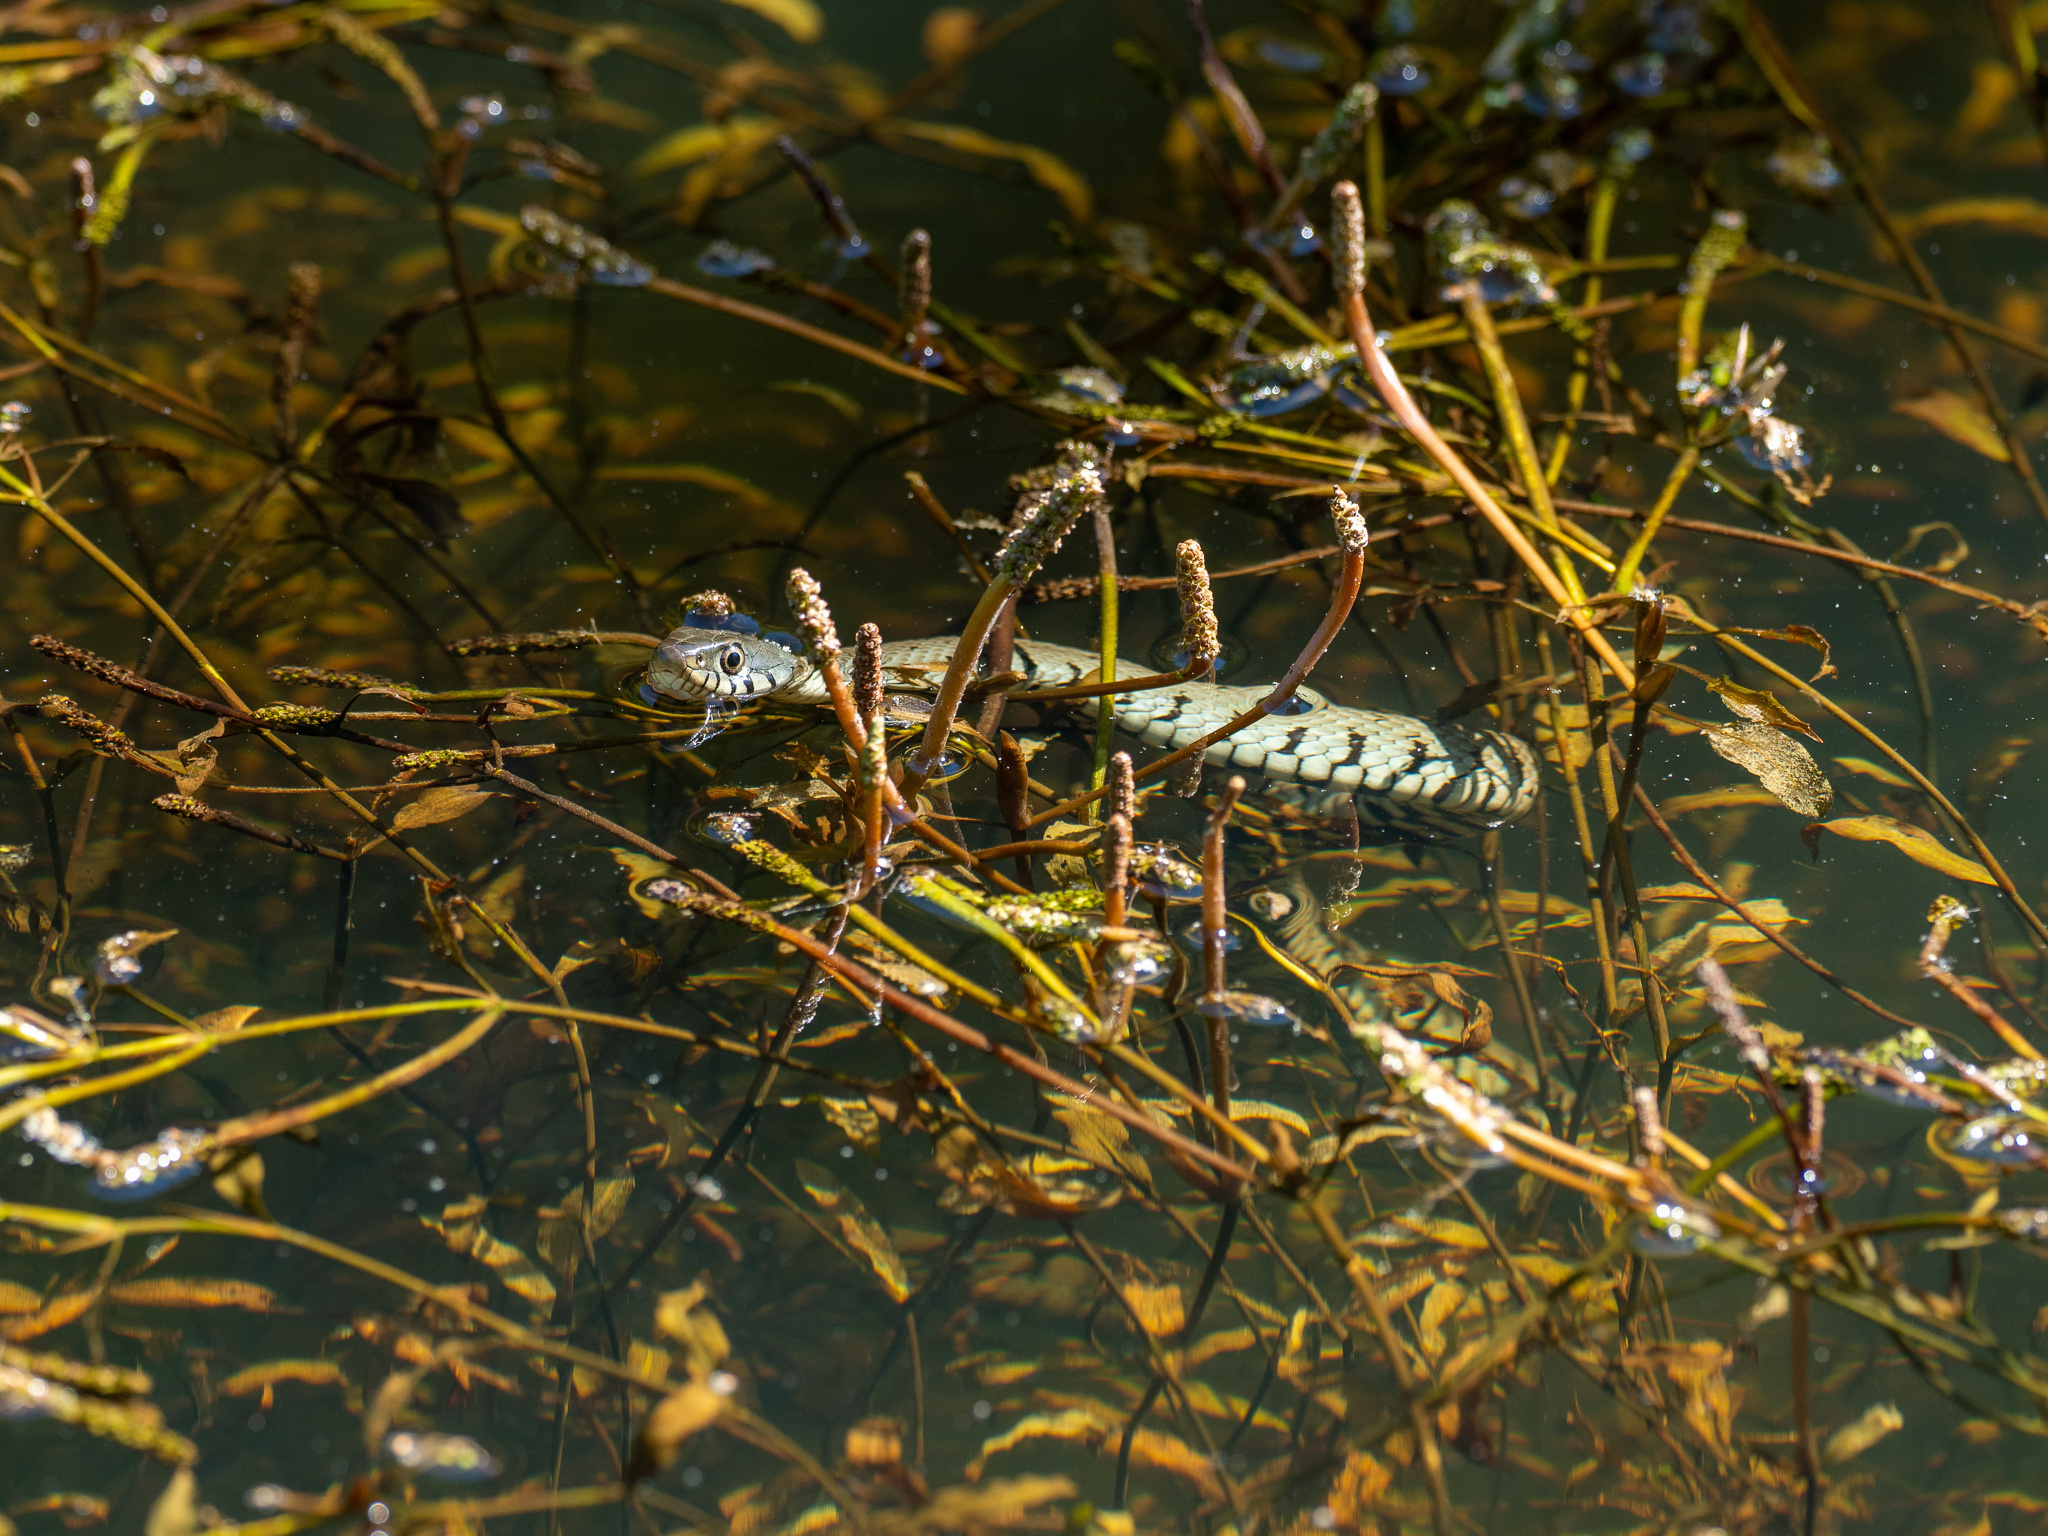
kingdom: Animalia
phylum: Chordata
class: Squamata
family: Colubridae
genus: Natrix
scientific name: Natrix helvetica
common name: Banded grass snake
